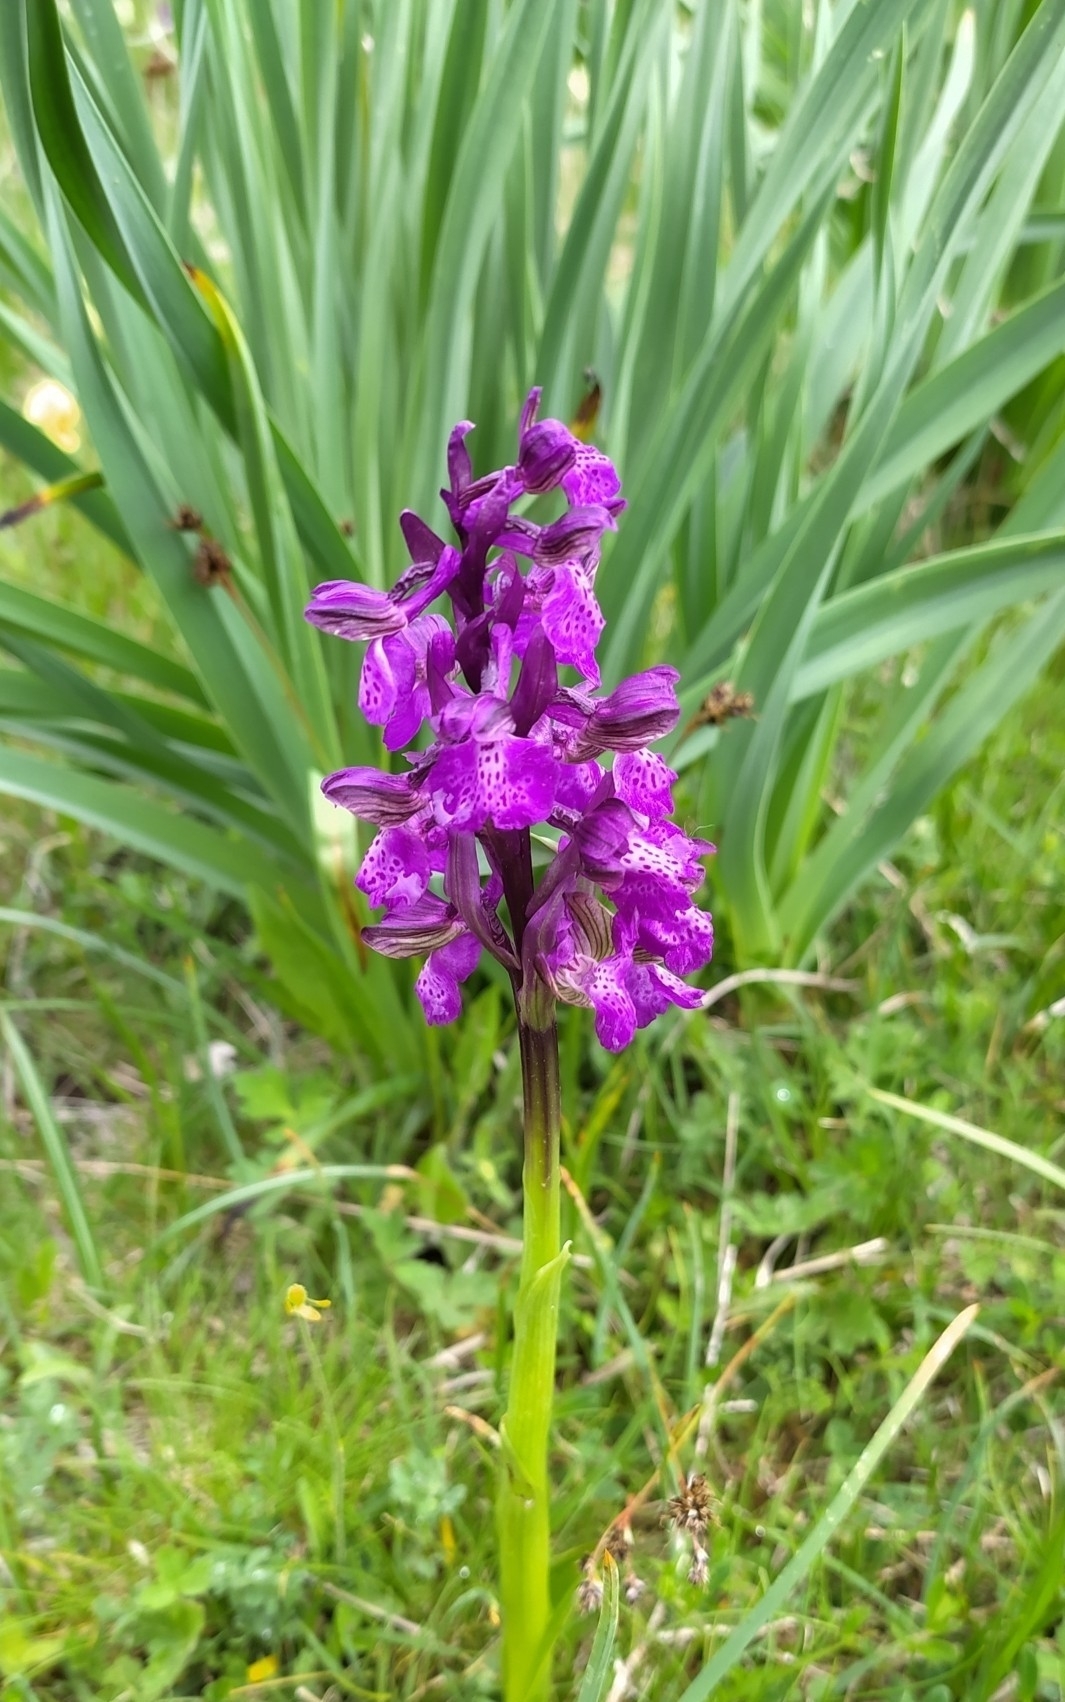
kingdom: Plantae
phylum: Tracheophyta
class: Liliopsida
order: Asparagales
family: Orchidaceae
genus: Anacamptis
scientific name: Anacamptis morio
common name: Green-winged orchid
